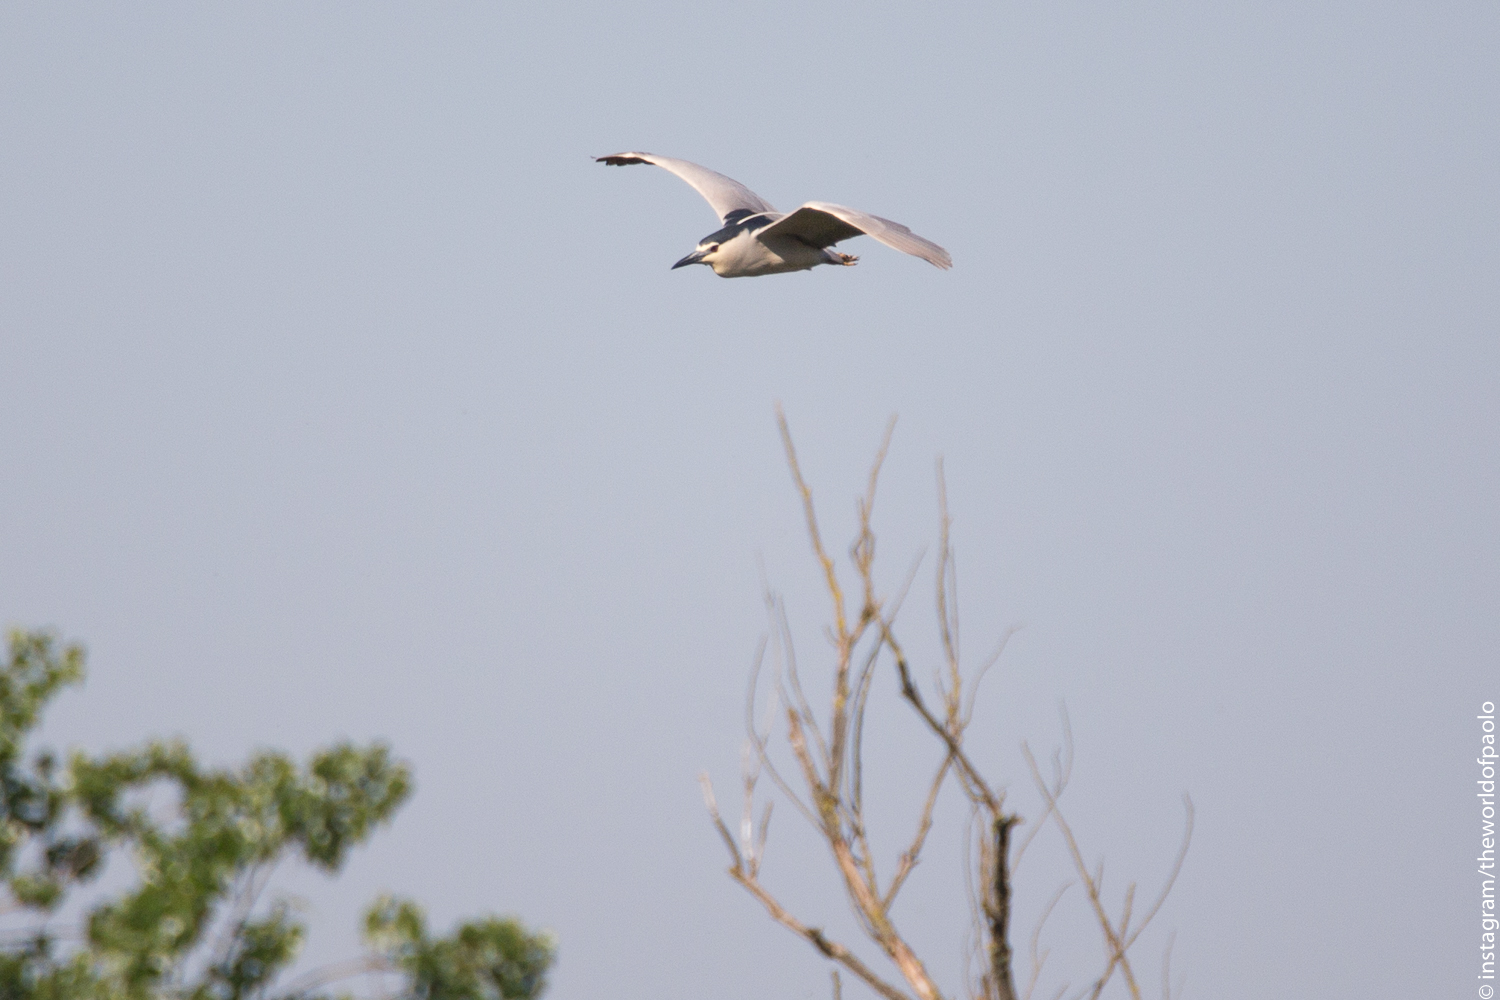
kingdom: Animalia
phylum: Chordata
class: Aves
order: Pelecaniformes
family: Ardeidae
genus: Nycticorax
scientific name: Nycticorax nycticorax
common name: Black-crowned night heron
